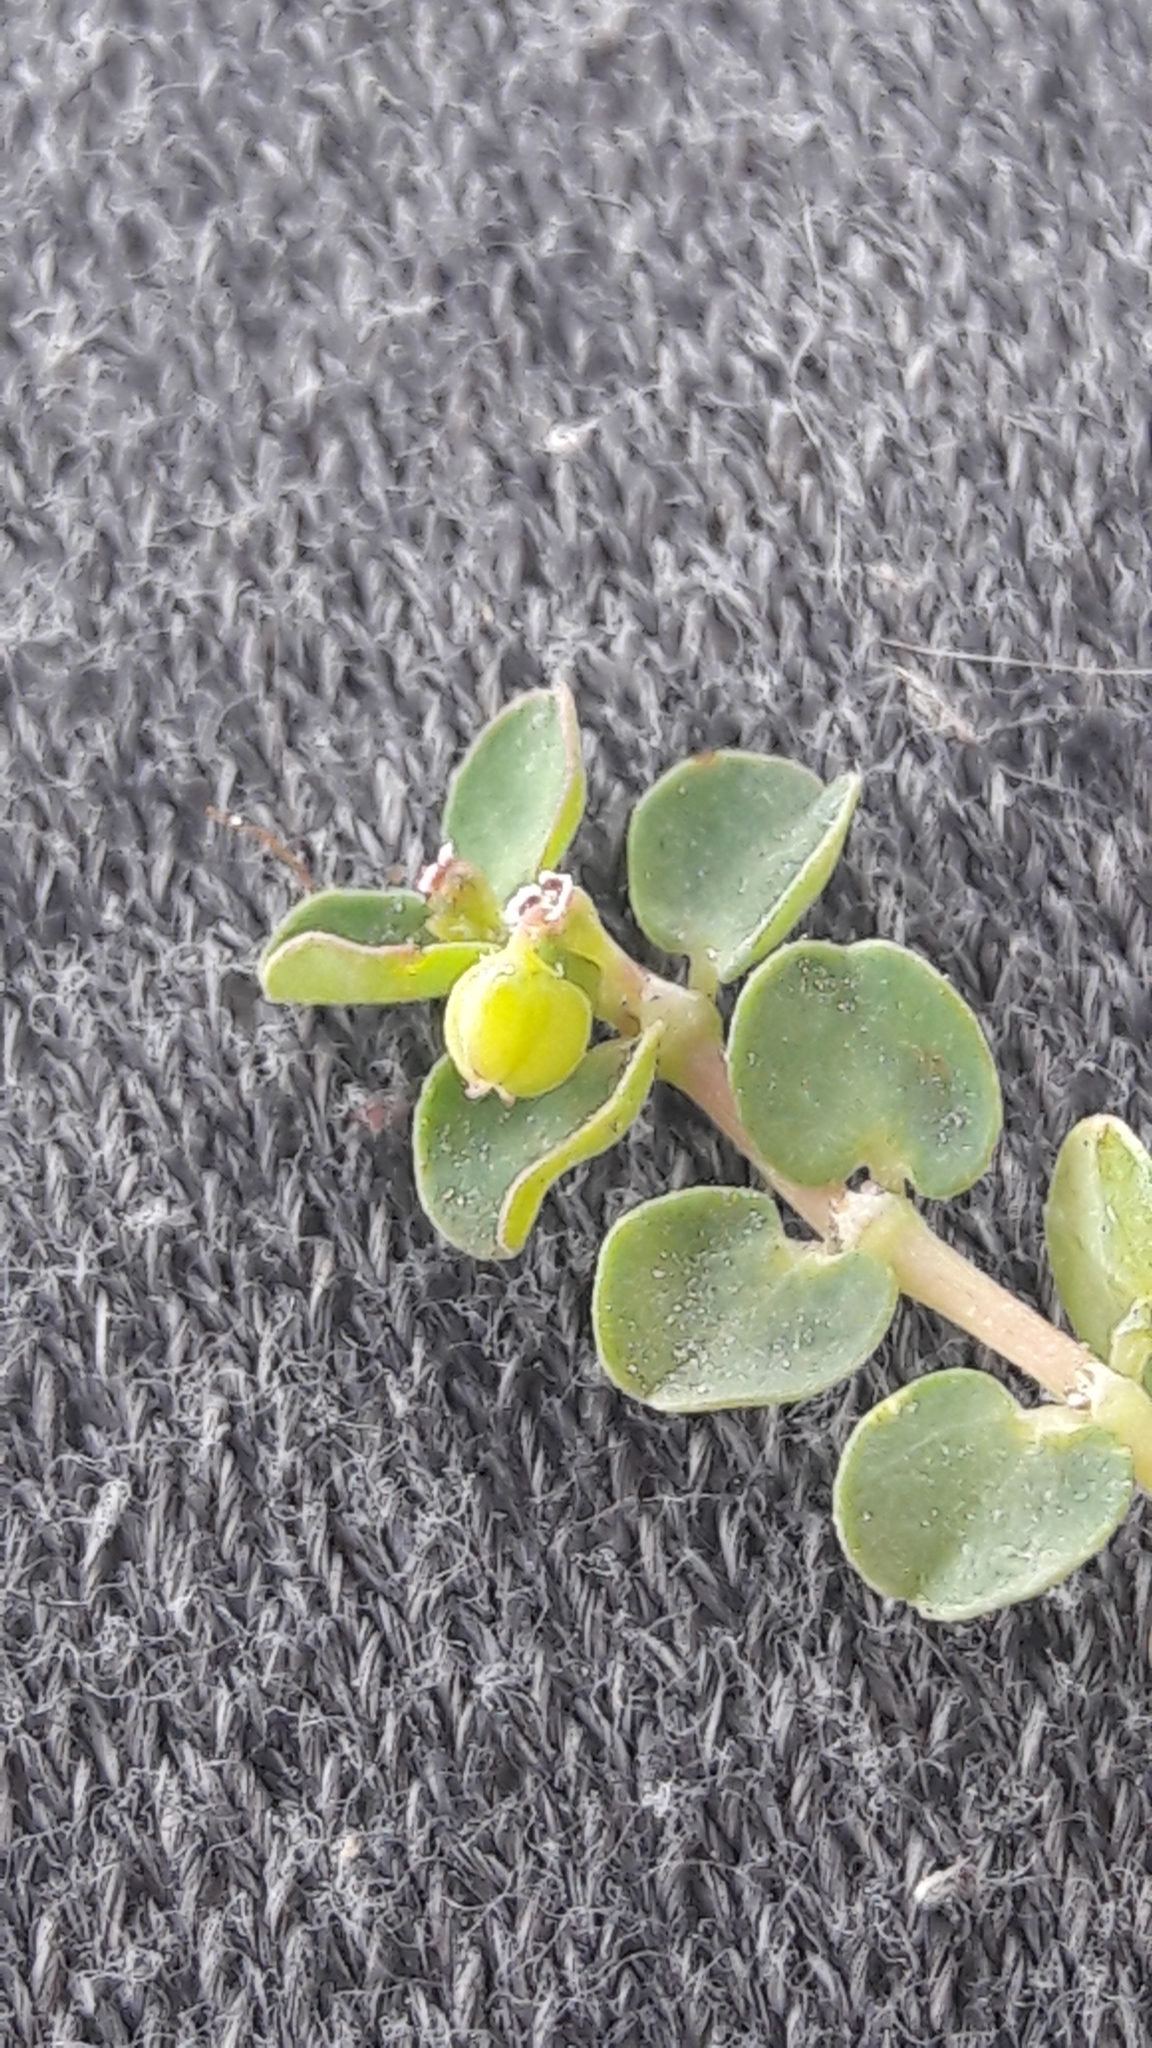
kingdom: Plantae
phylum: Tracheophyta
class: Magnoliopsida
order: Malpighiales
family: Euphorbiaceae
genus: Euphorbia
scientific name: Euphorbia serpens
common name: Matted sandmat
